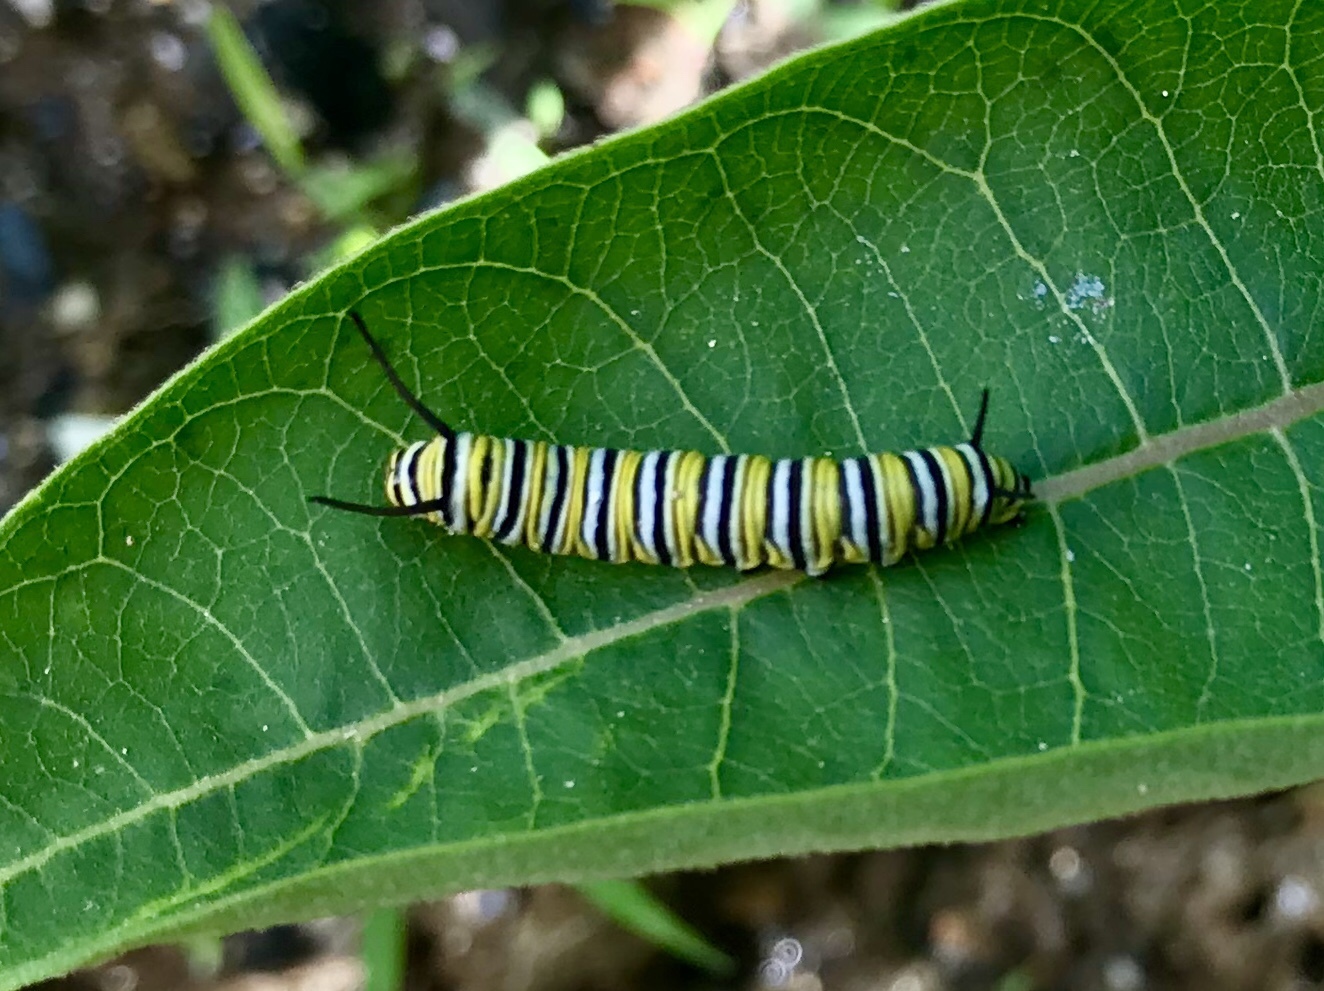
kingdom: Animalia
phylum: Arthropoda
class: Insecta
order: Lepidoptera
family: Nymphalidae
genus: Danaus
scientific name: Danaus plexippus
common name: Monarch
